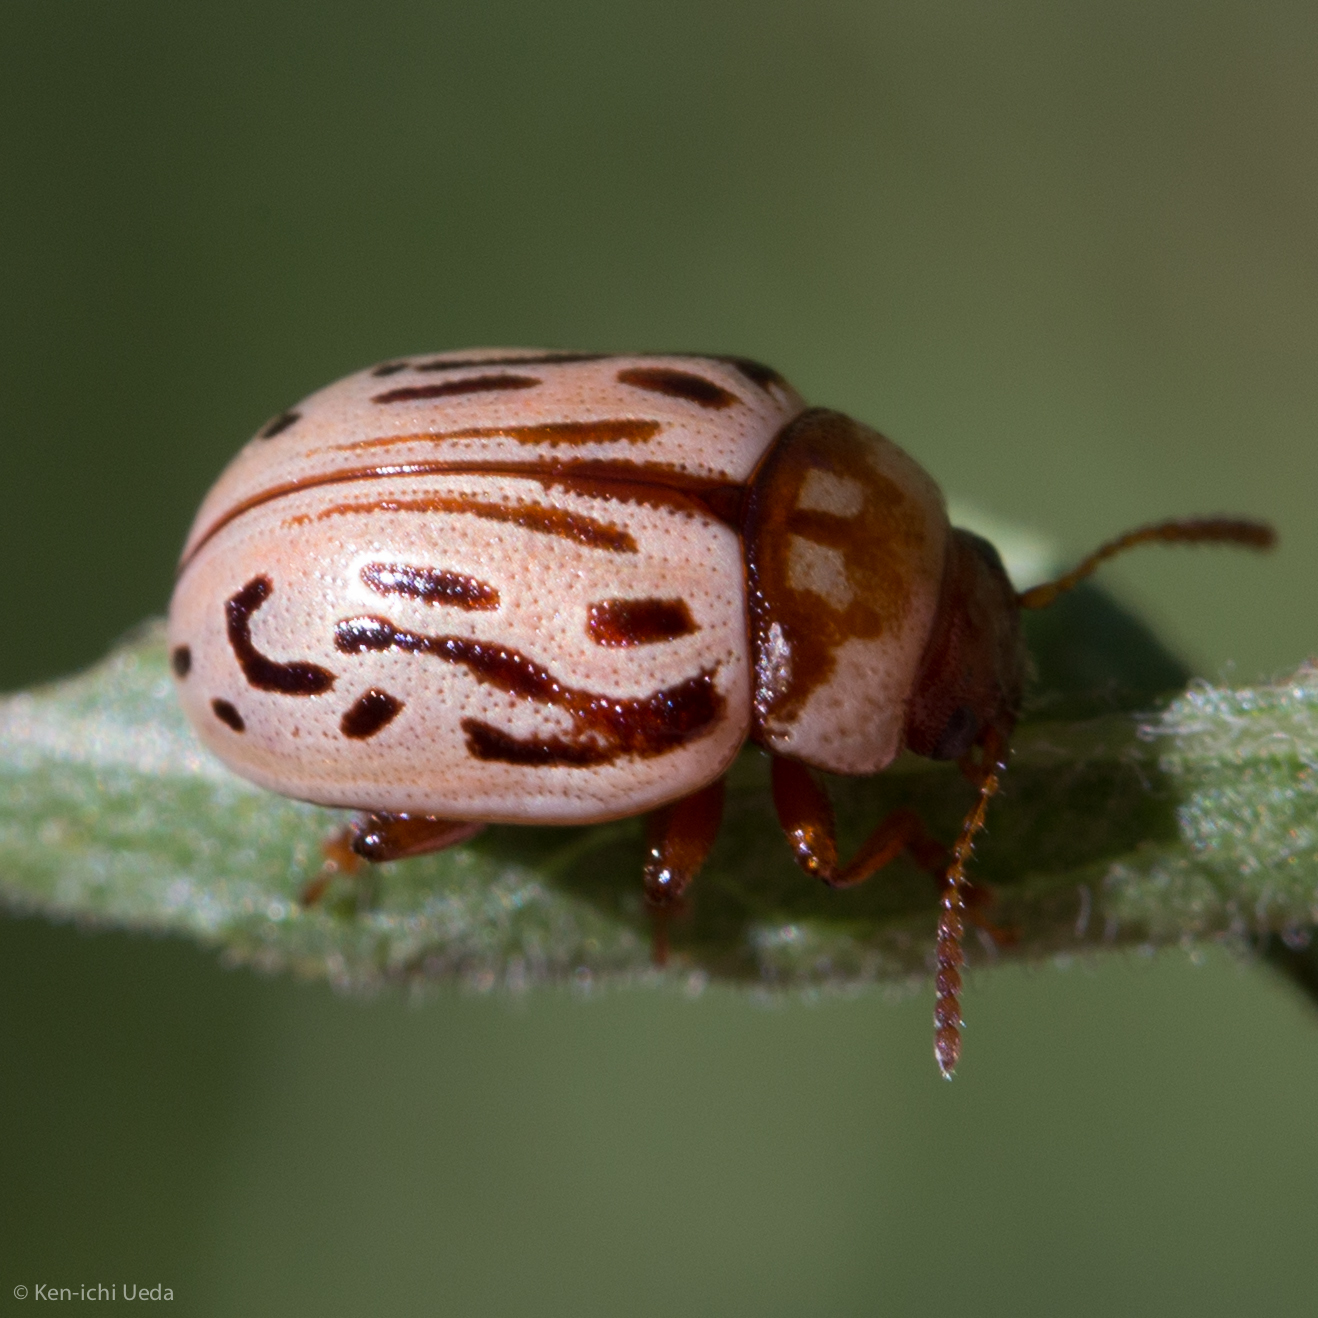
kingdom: Animalia
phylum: Arthropoda
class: Insecta
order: Coleoptera
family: Chrysomelidae
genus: Calligrapha
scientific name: Calligrapha
